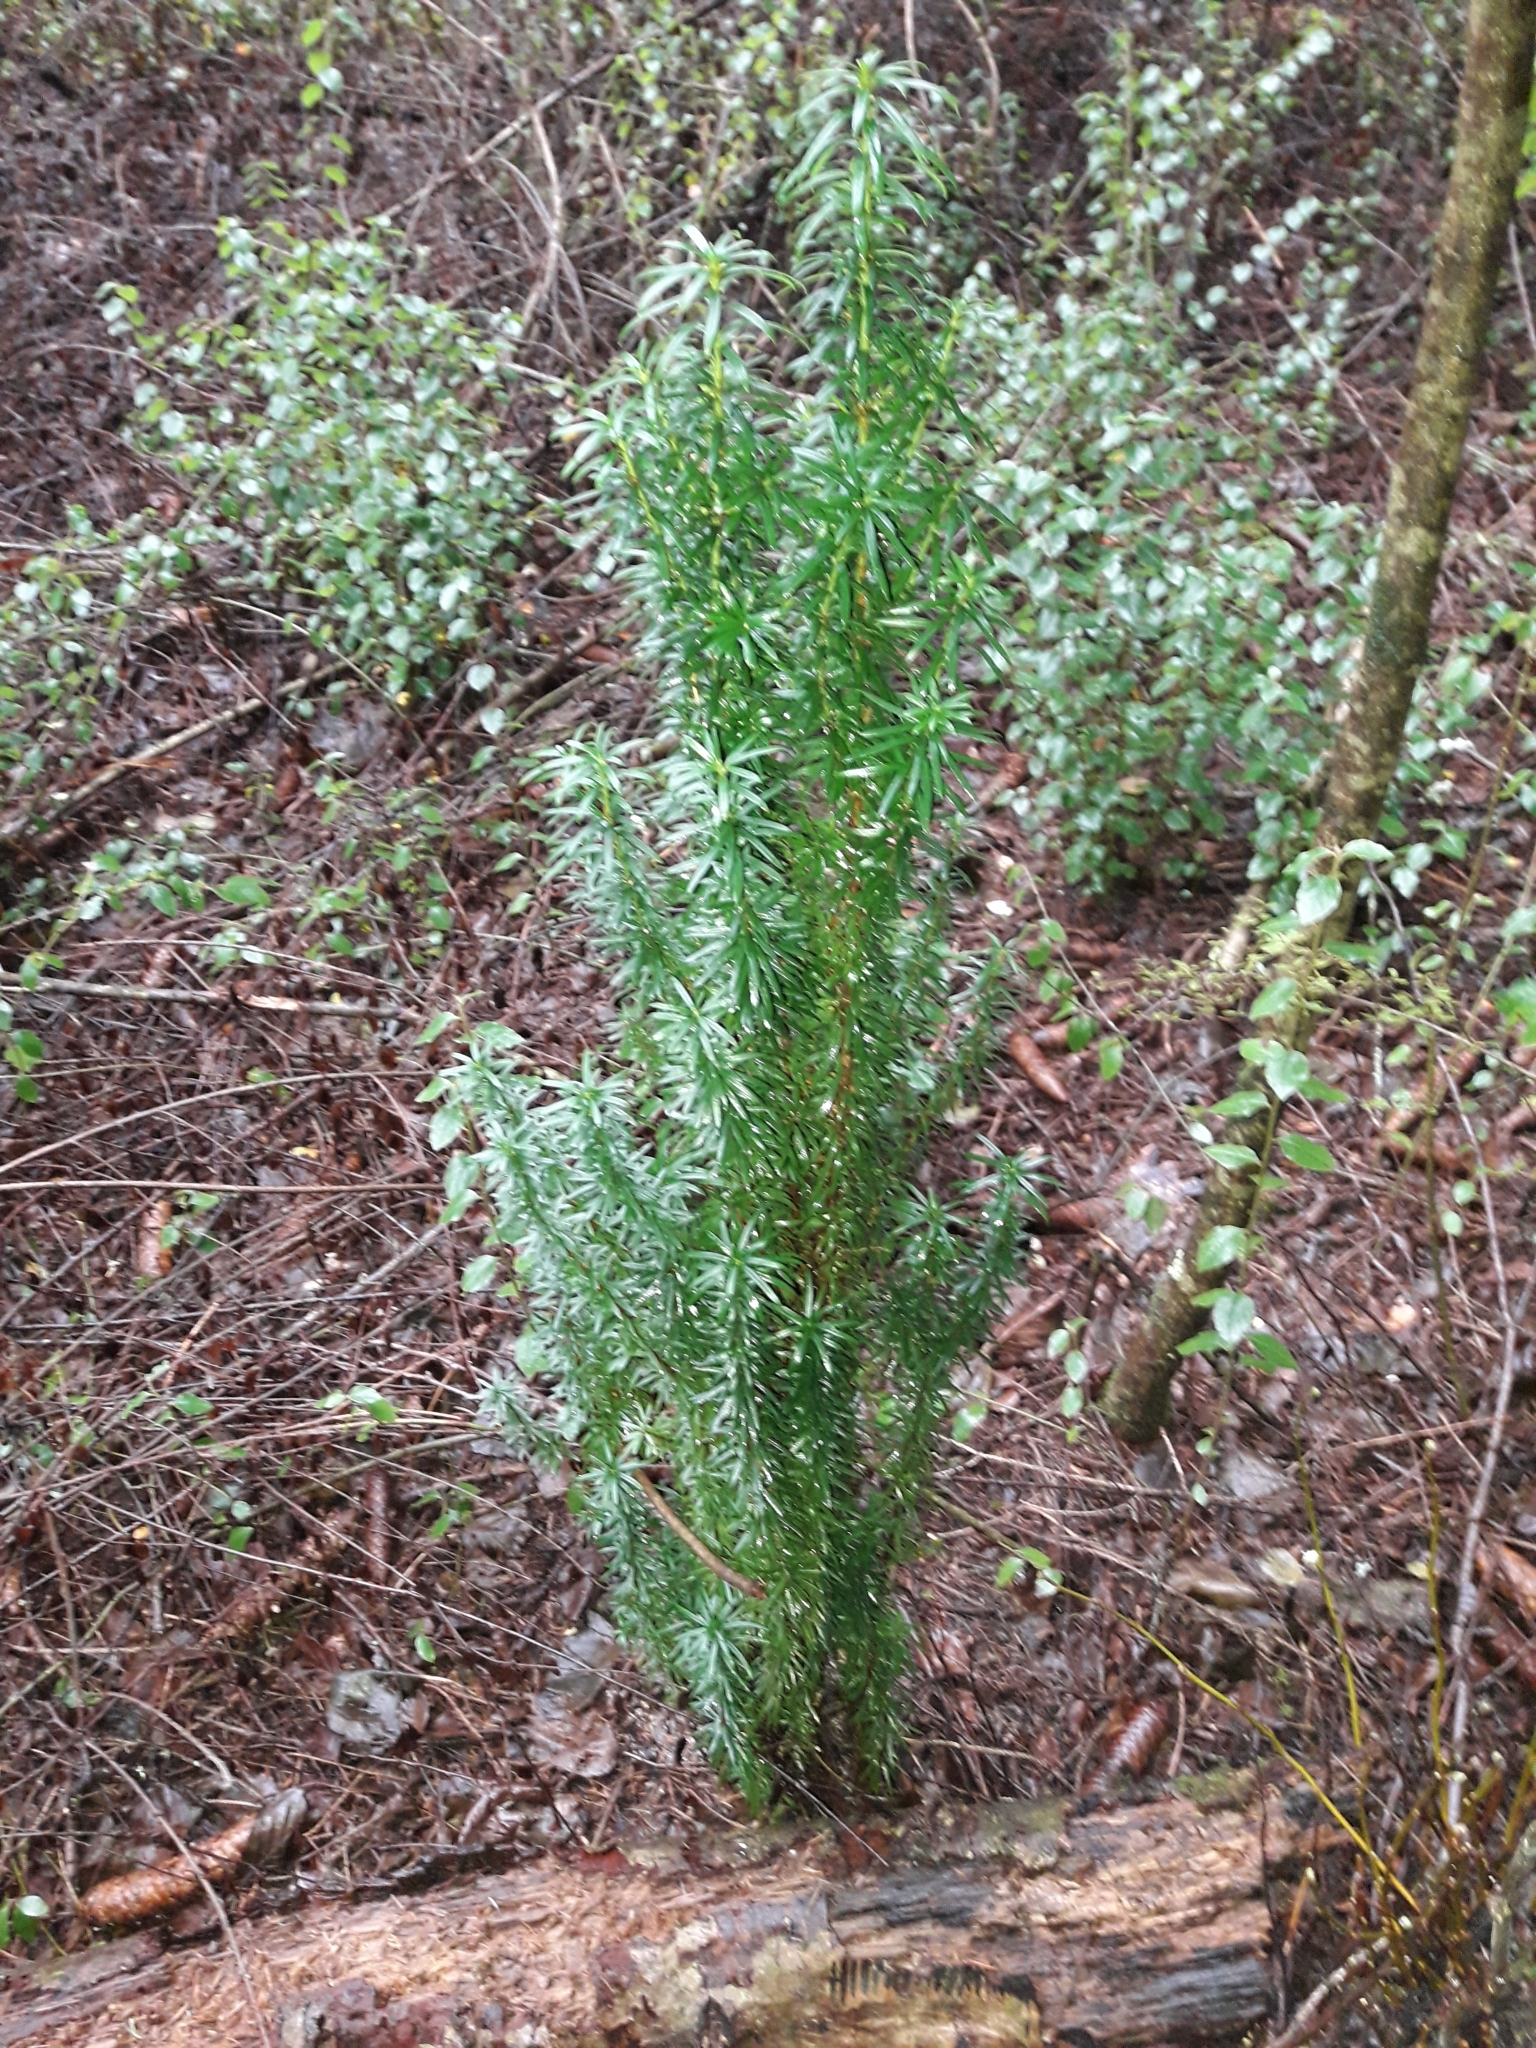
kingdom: Plantae
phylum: Tracheophyta
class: Pinopsida
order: Pinales
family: Taxaceae
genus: Taxus
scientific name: Taxus baccata
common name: Yew
